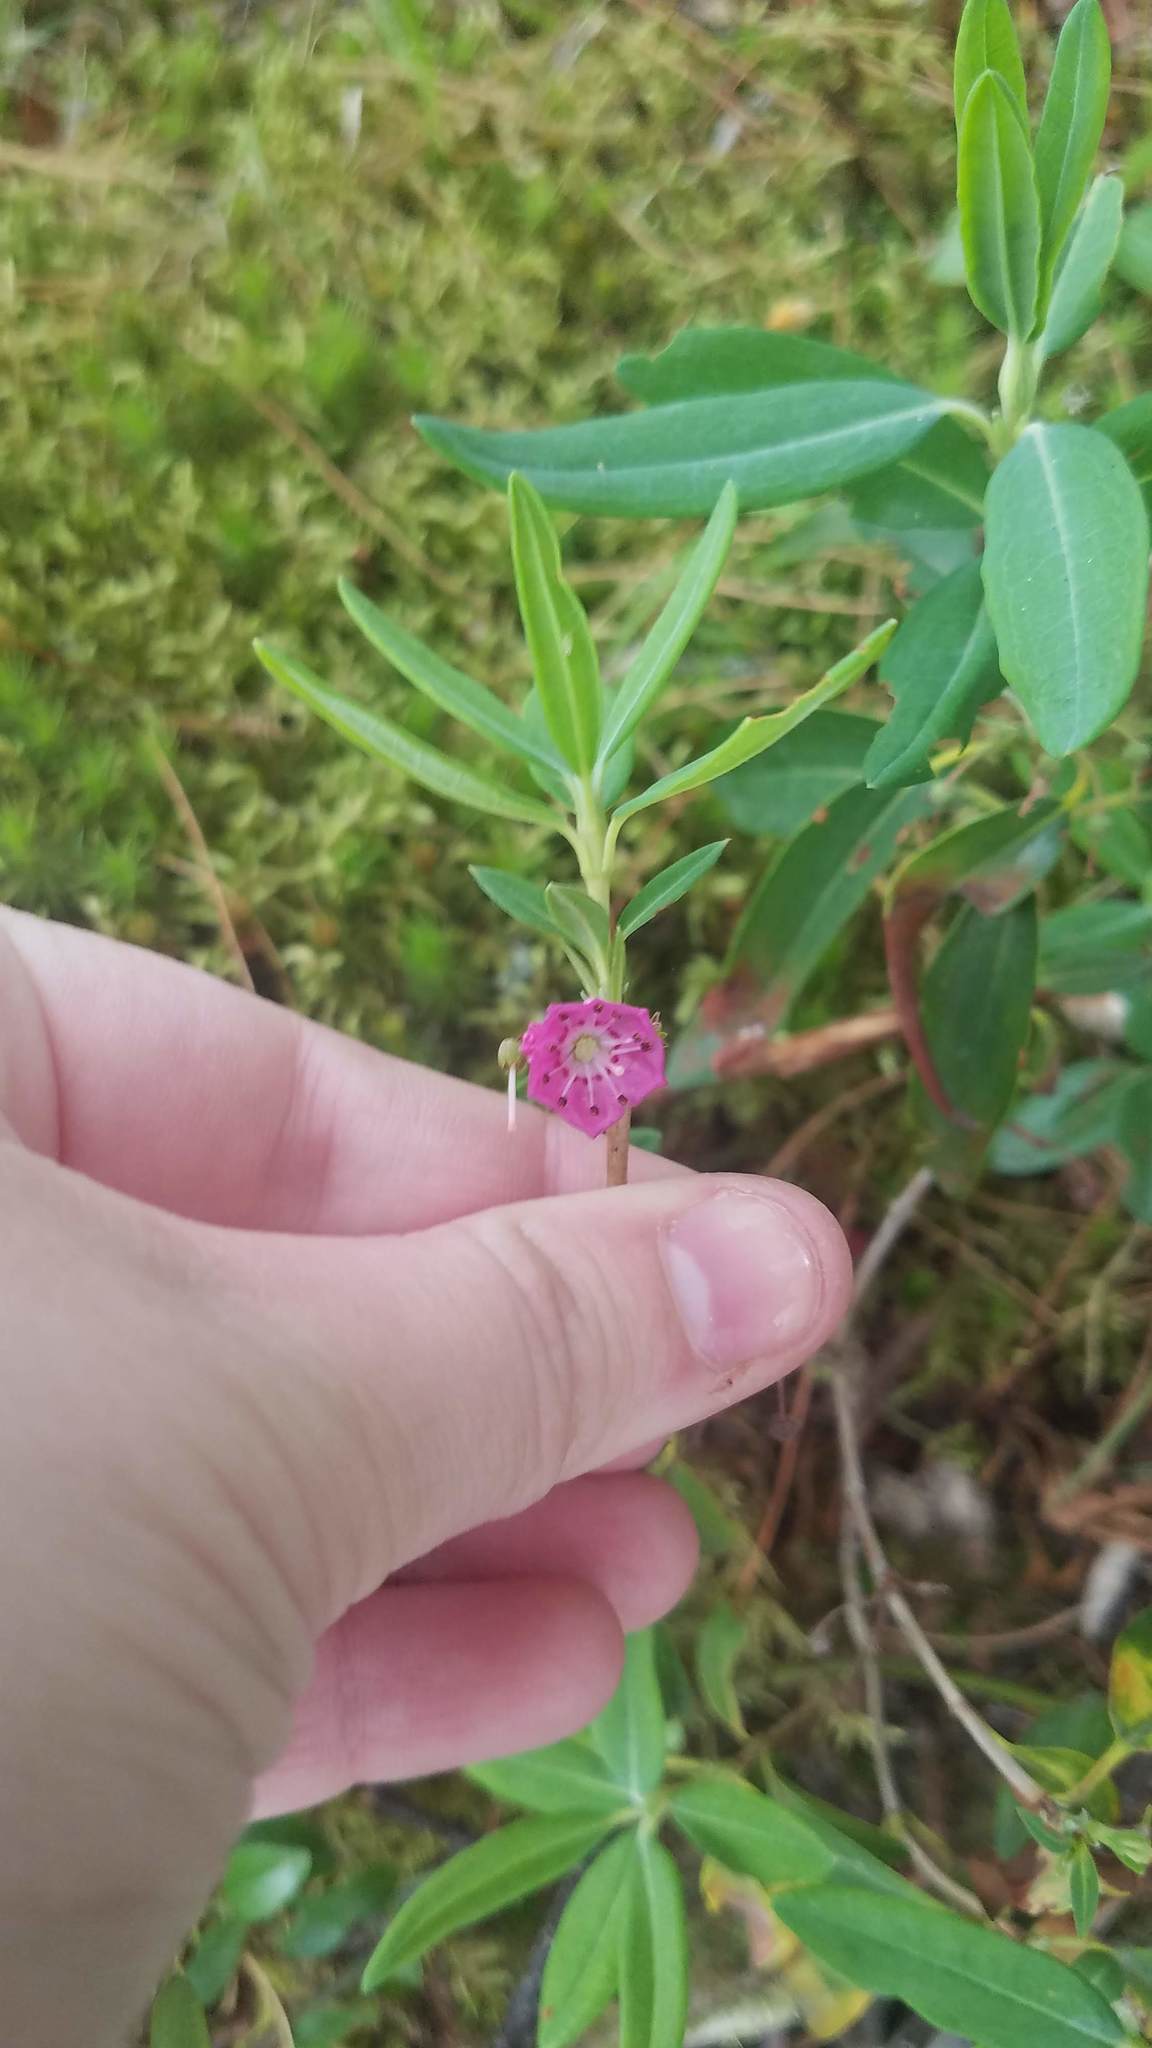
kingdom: Plantae
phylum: Tracheophyta
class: Magnoliopsida
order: Ericales
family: Ericaceae
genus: Kalmia
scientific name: Kalmia angustifolia
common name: Sheep-laurel
